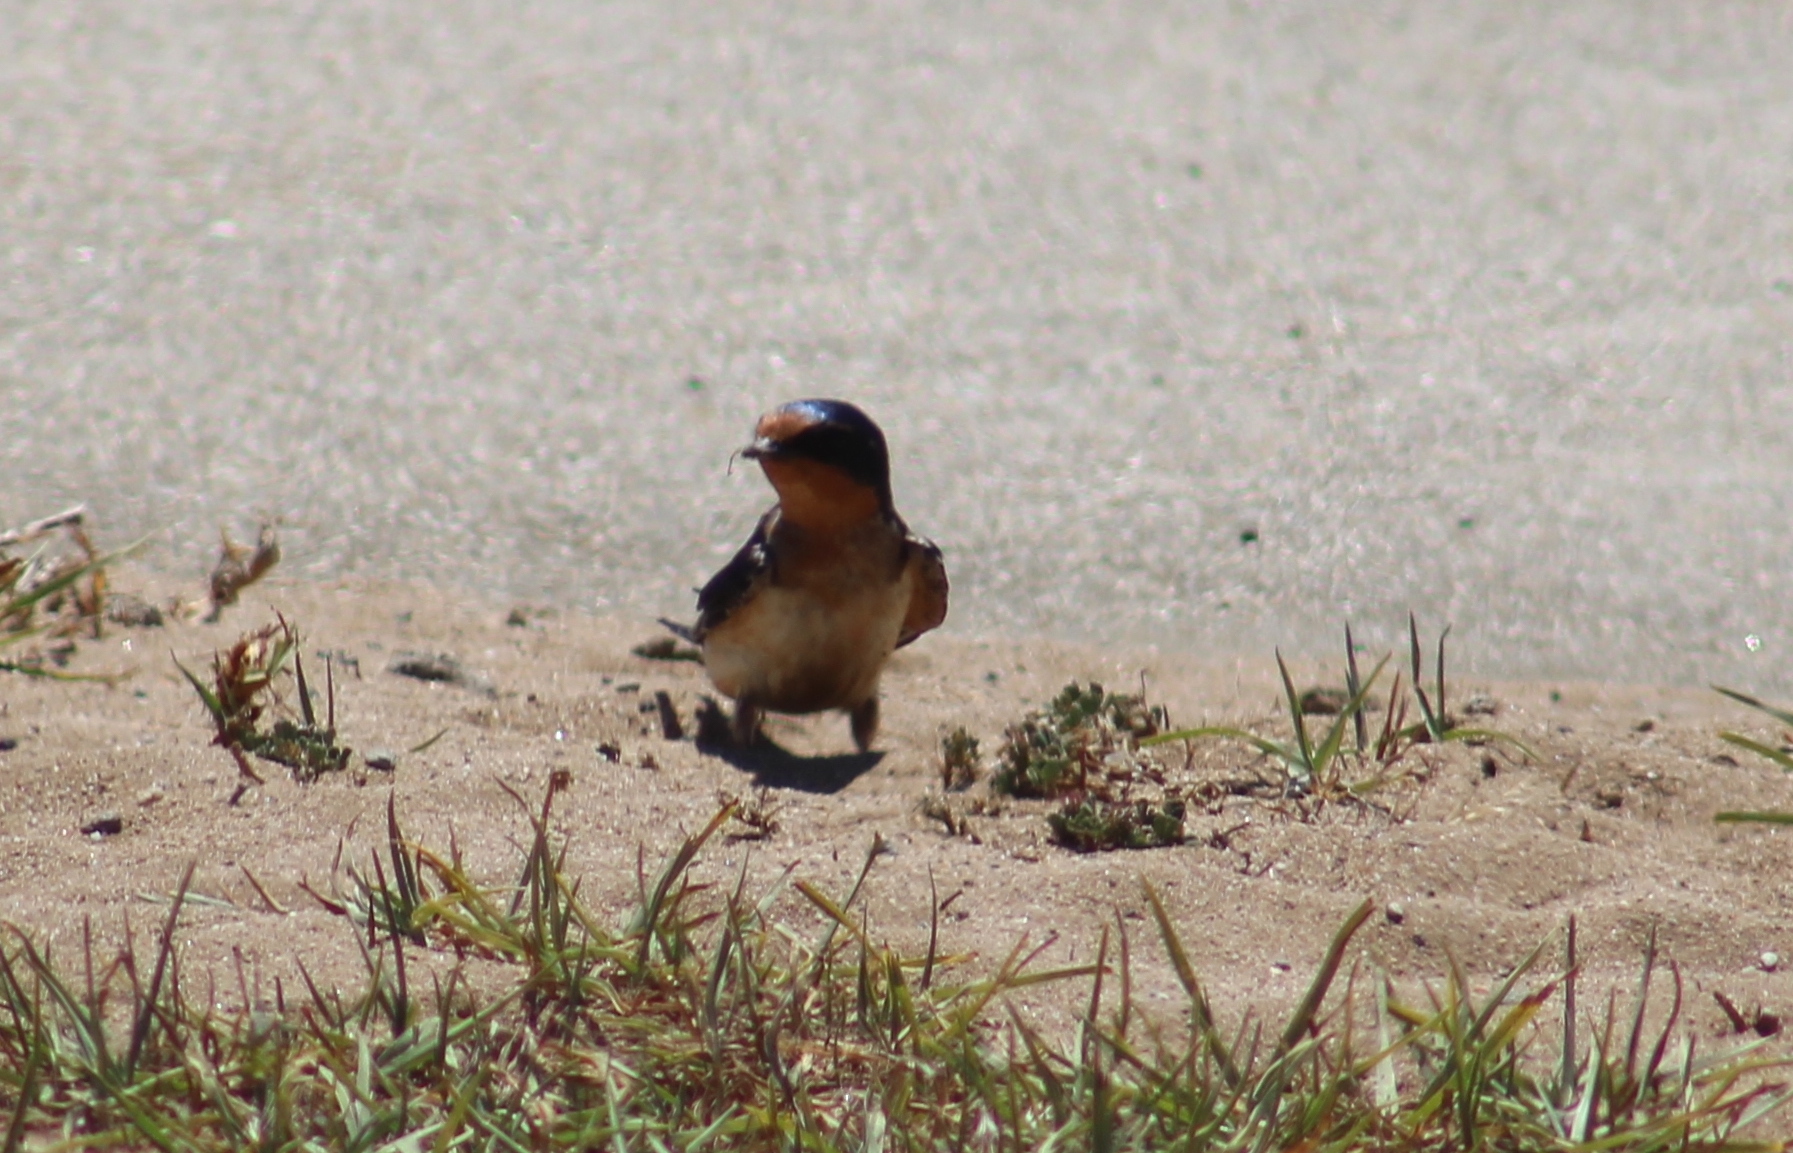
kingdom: Animalia
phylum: Chordata
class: Aves
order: Passeriformes
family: Hirundinidae
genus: Hirundo
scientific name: Hirundo rustica
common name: Barn swallow
